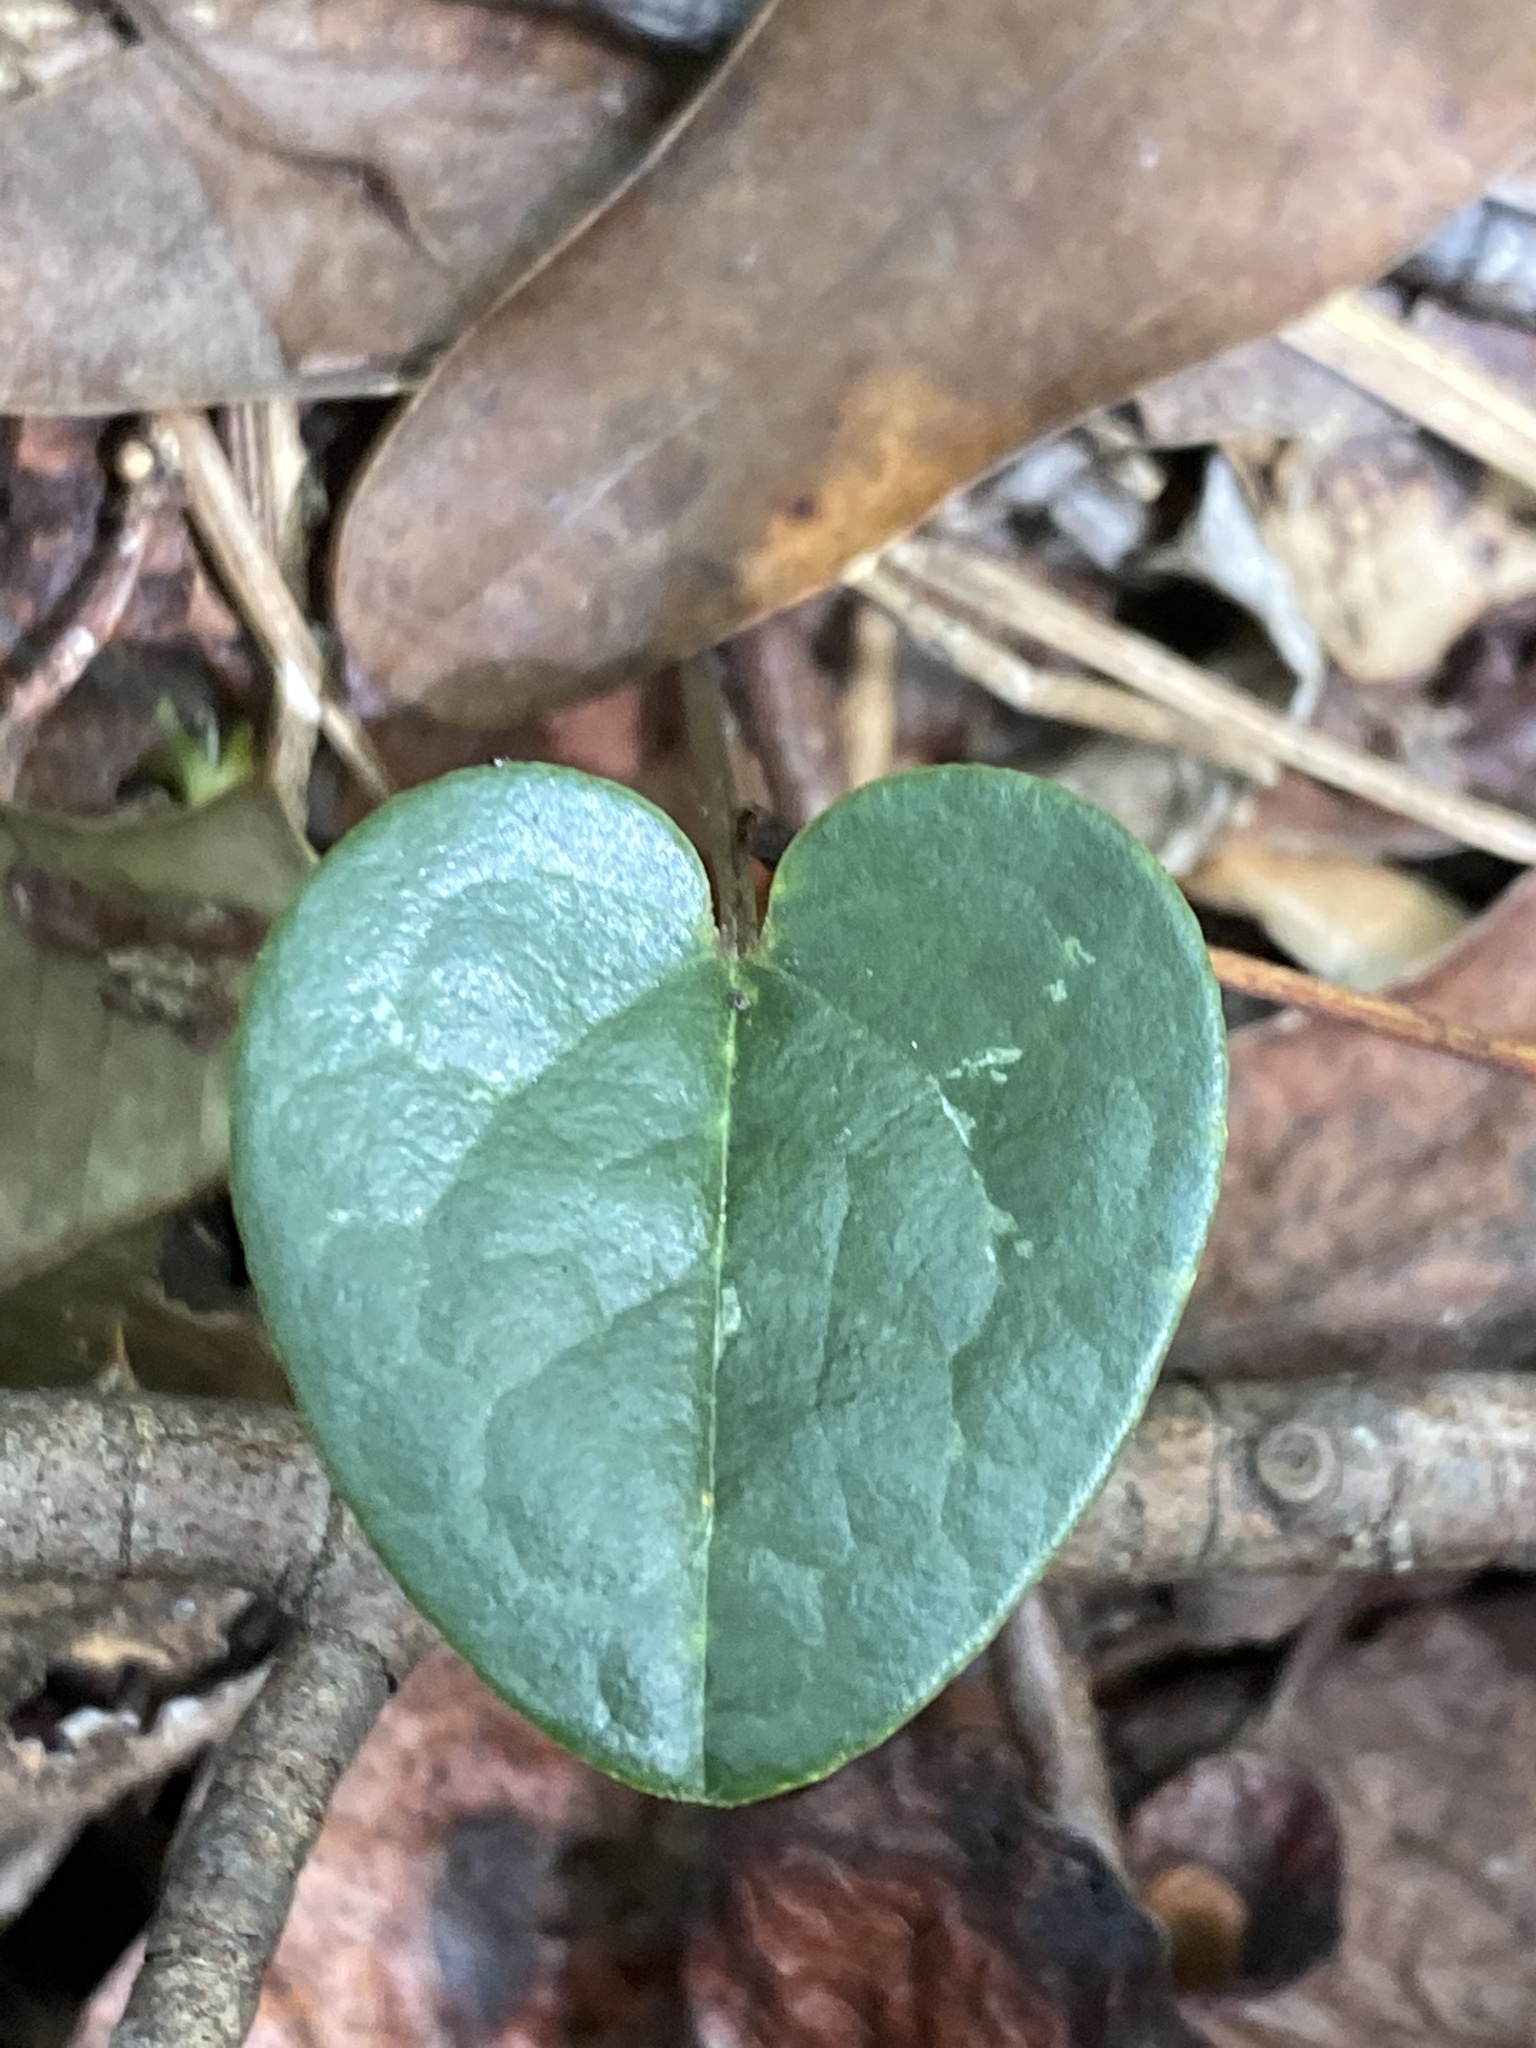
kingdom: Plantae
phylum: Tracheophyta
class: Magnoliopsida
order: Piperales
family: Aristolochiaceae
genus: Hexastylis
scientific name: Hexastylis sorriei
